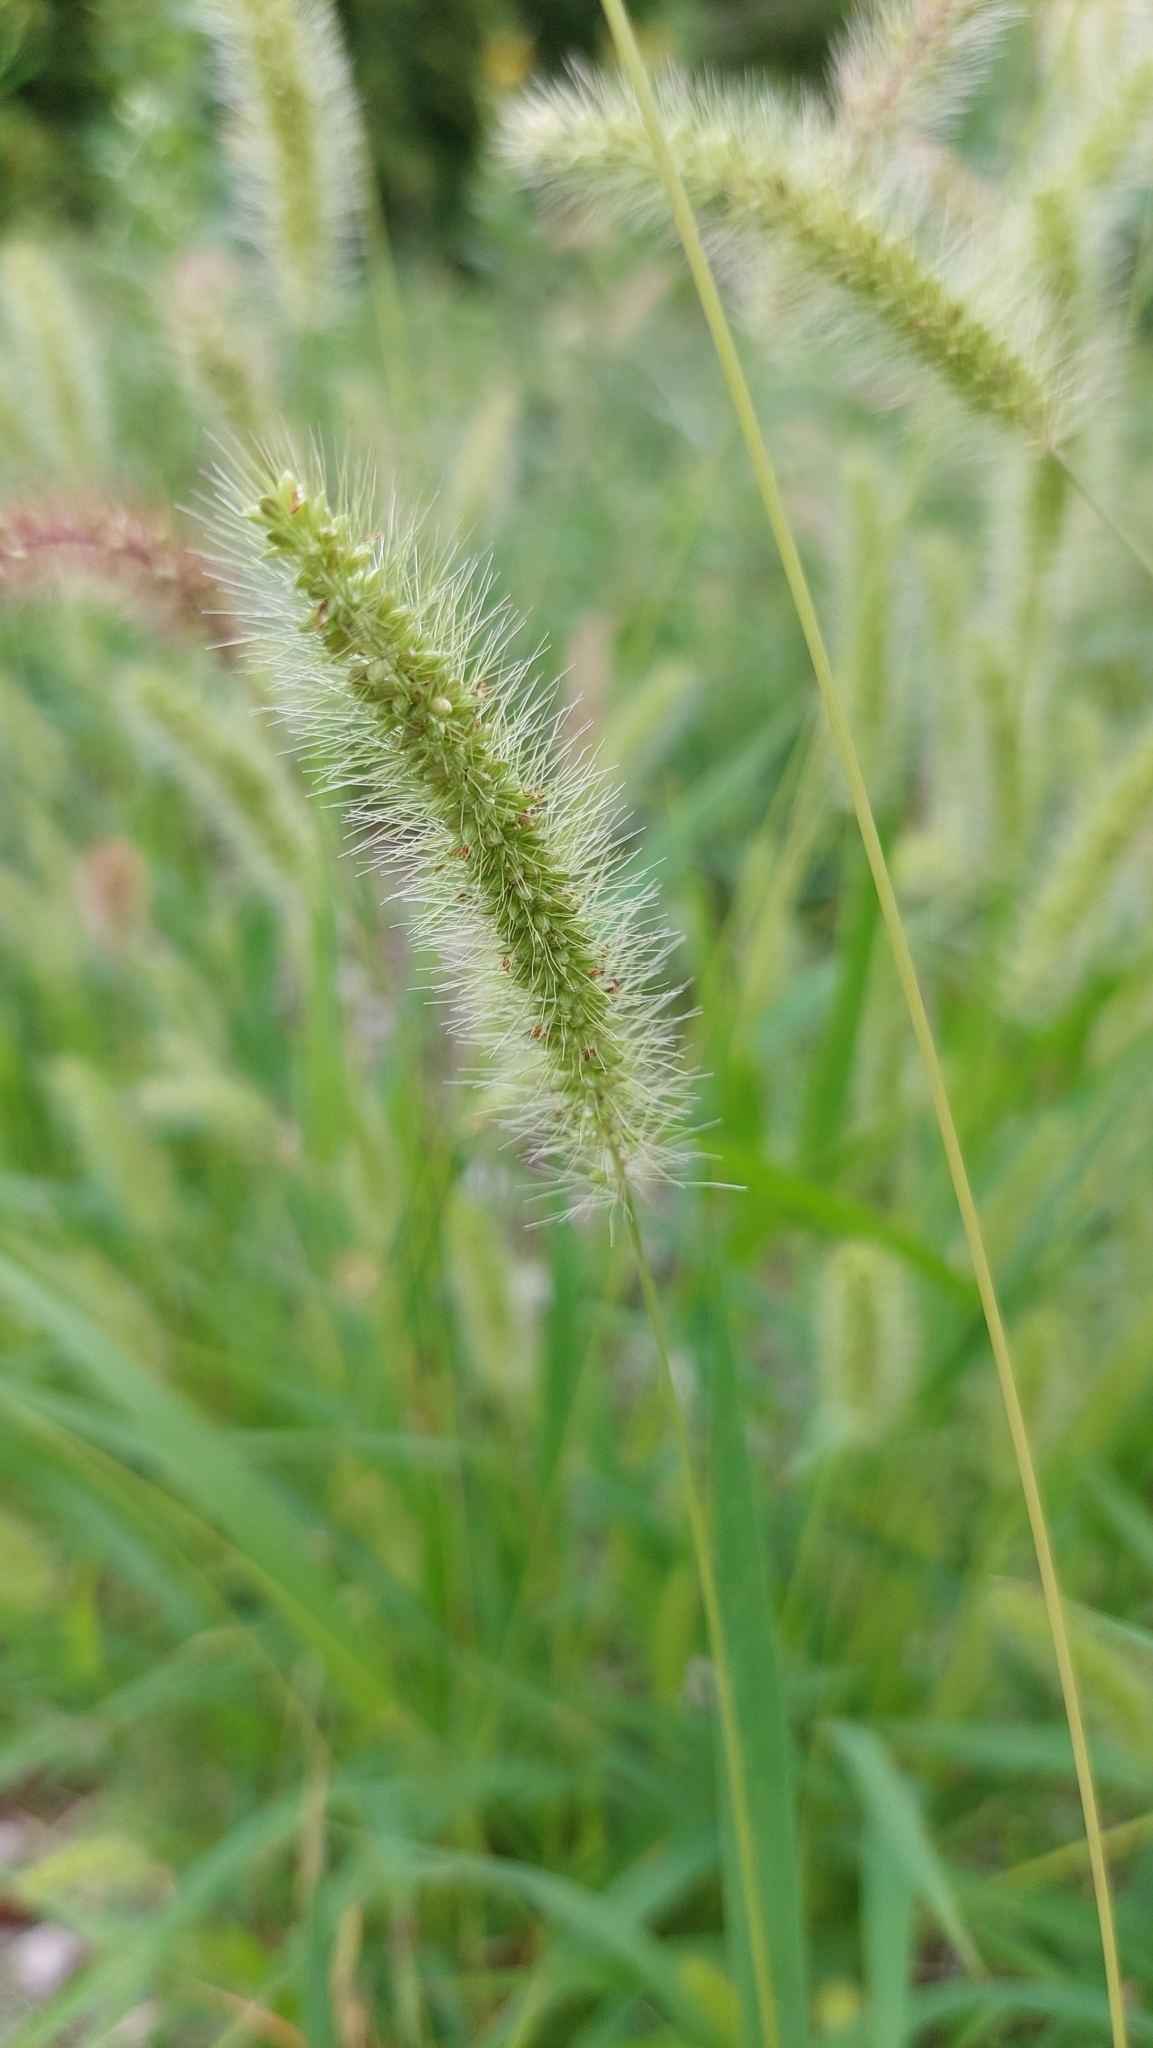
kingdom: Plantae
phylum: Tracheophyta
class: Liliopsida
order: Poales
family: Poaceae
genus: Setaria
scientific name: Setaria viridis
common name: Green bristlegrass
